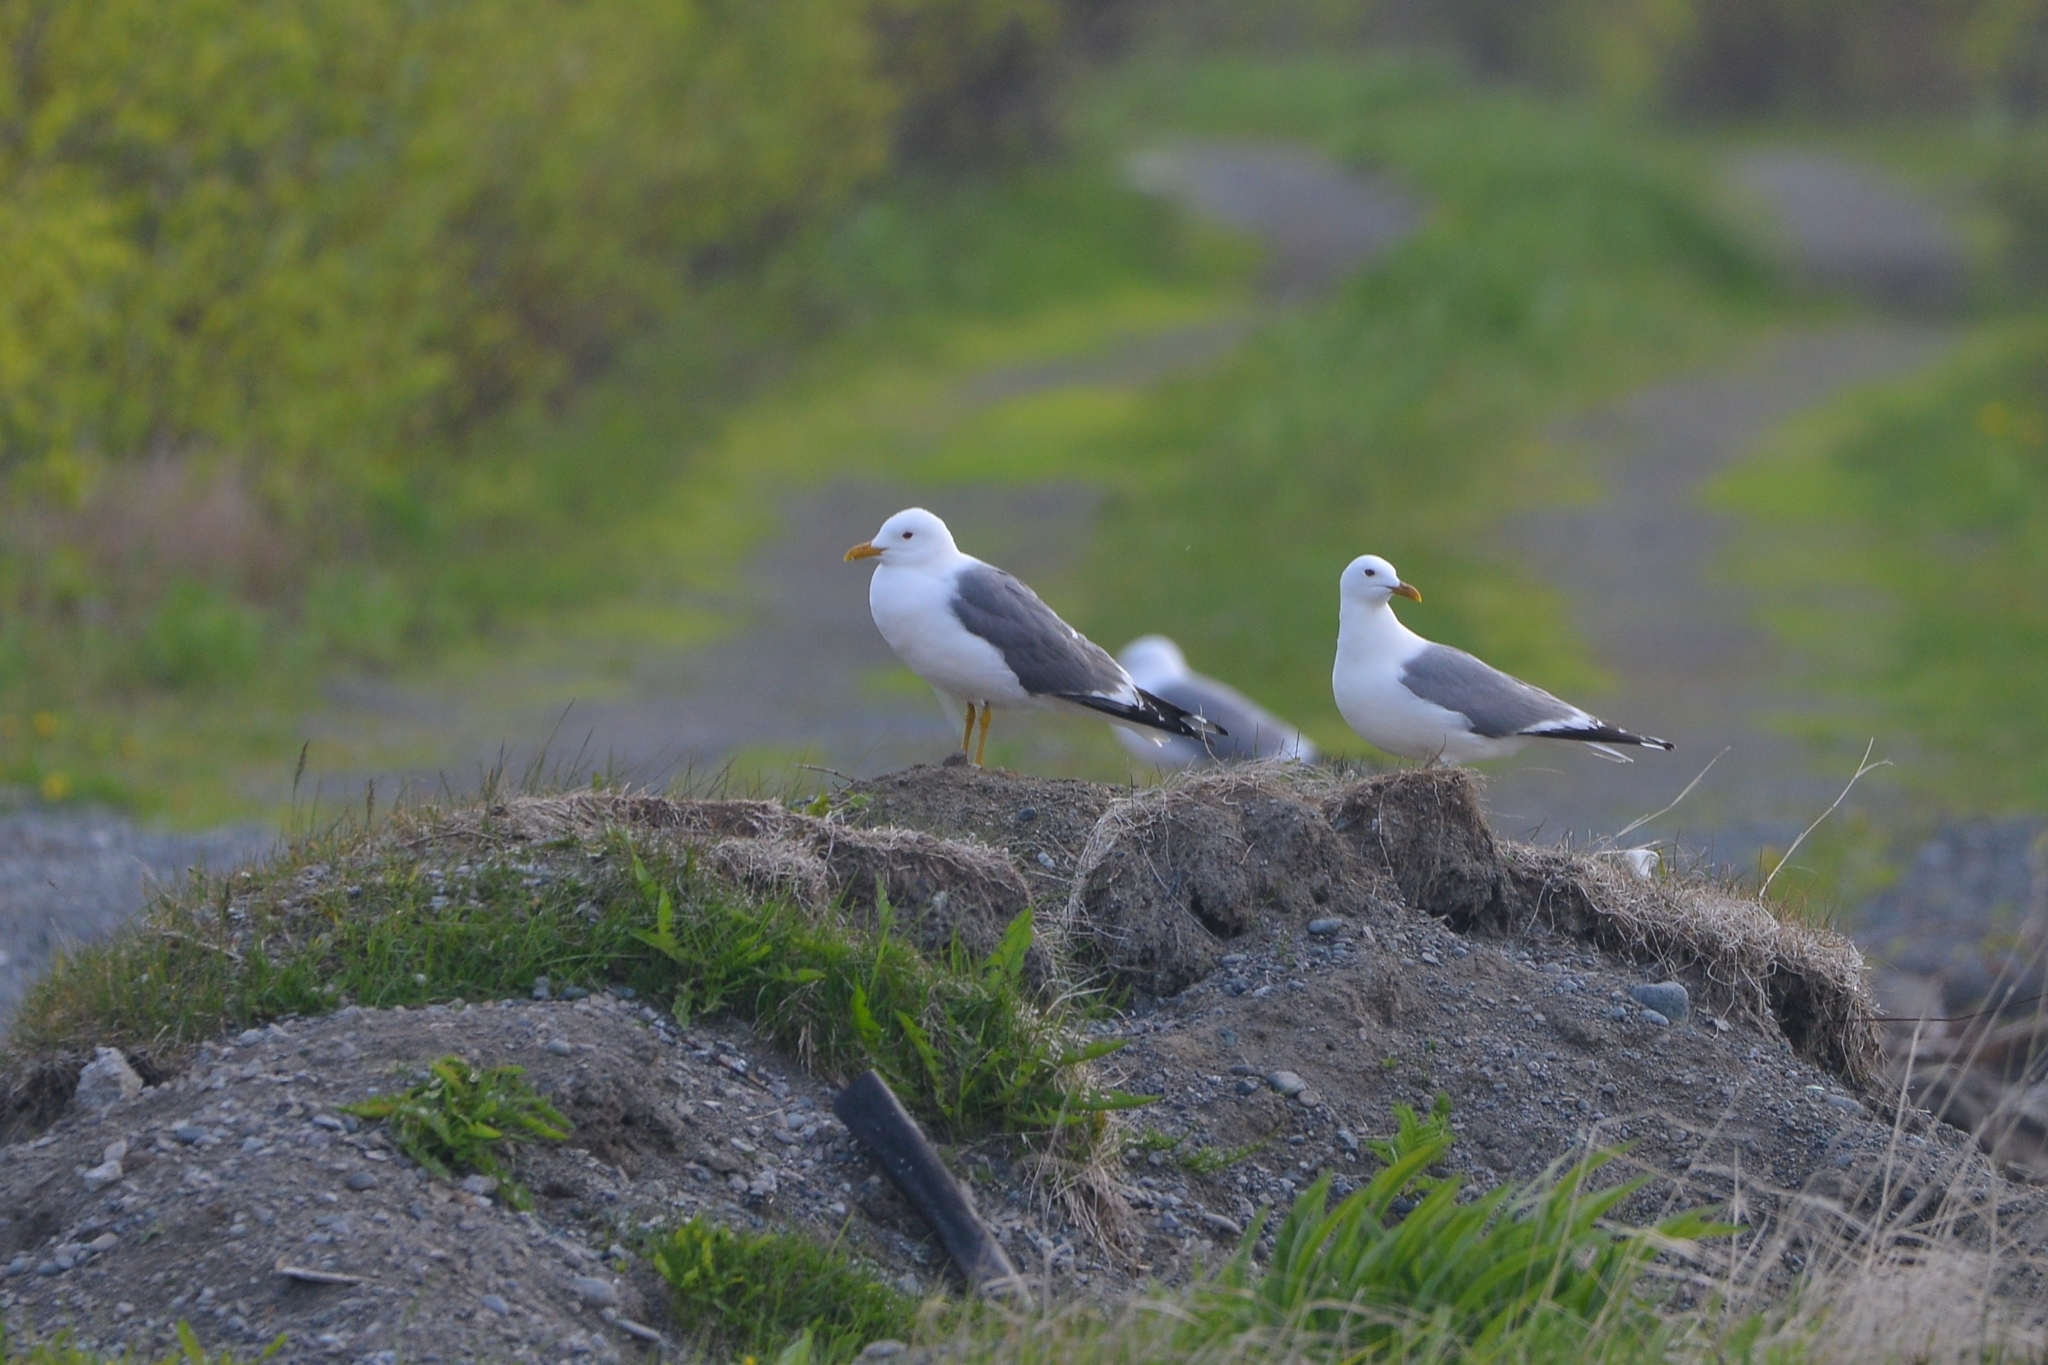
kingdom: Animalia
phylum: Chordata
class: Aves
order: Charadriiformes
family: Laridae
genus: Larus
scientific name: Larus canus
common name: Mew gull
